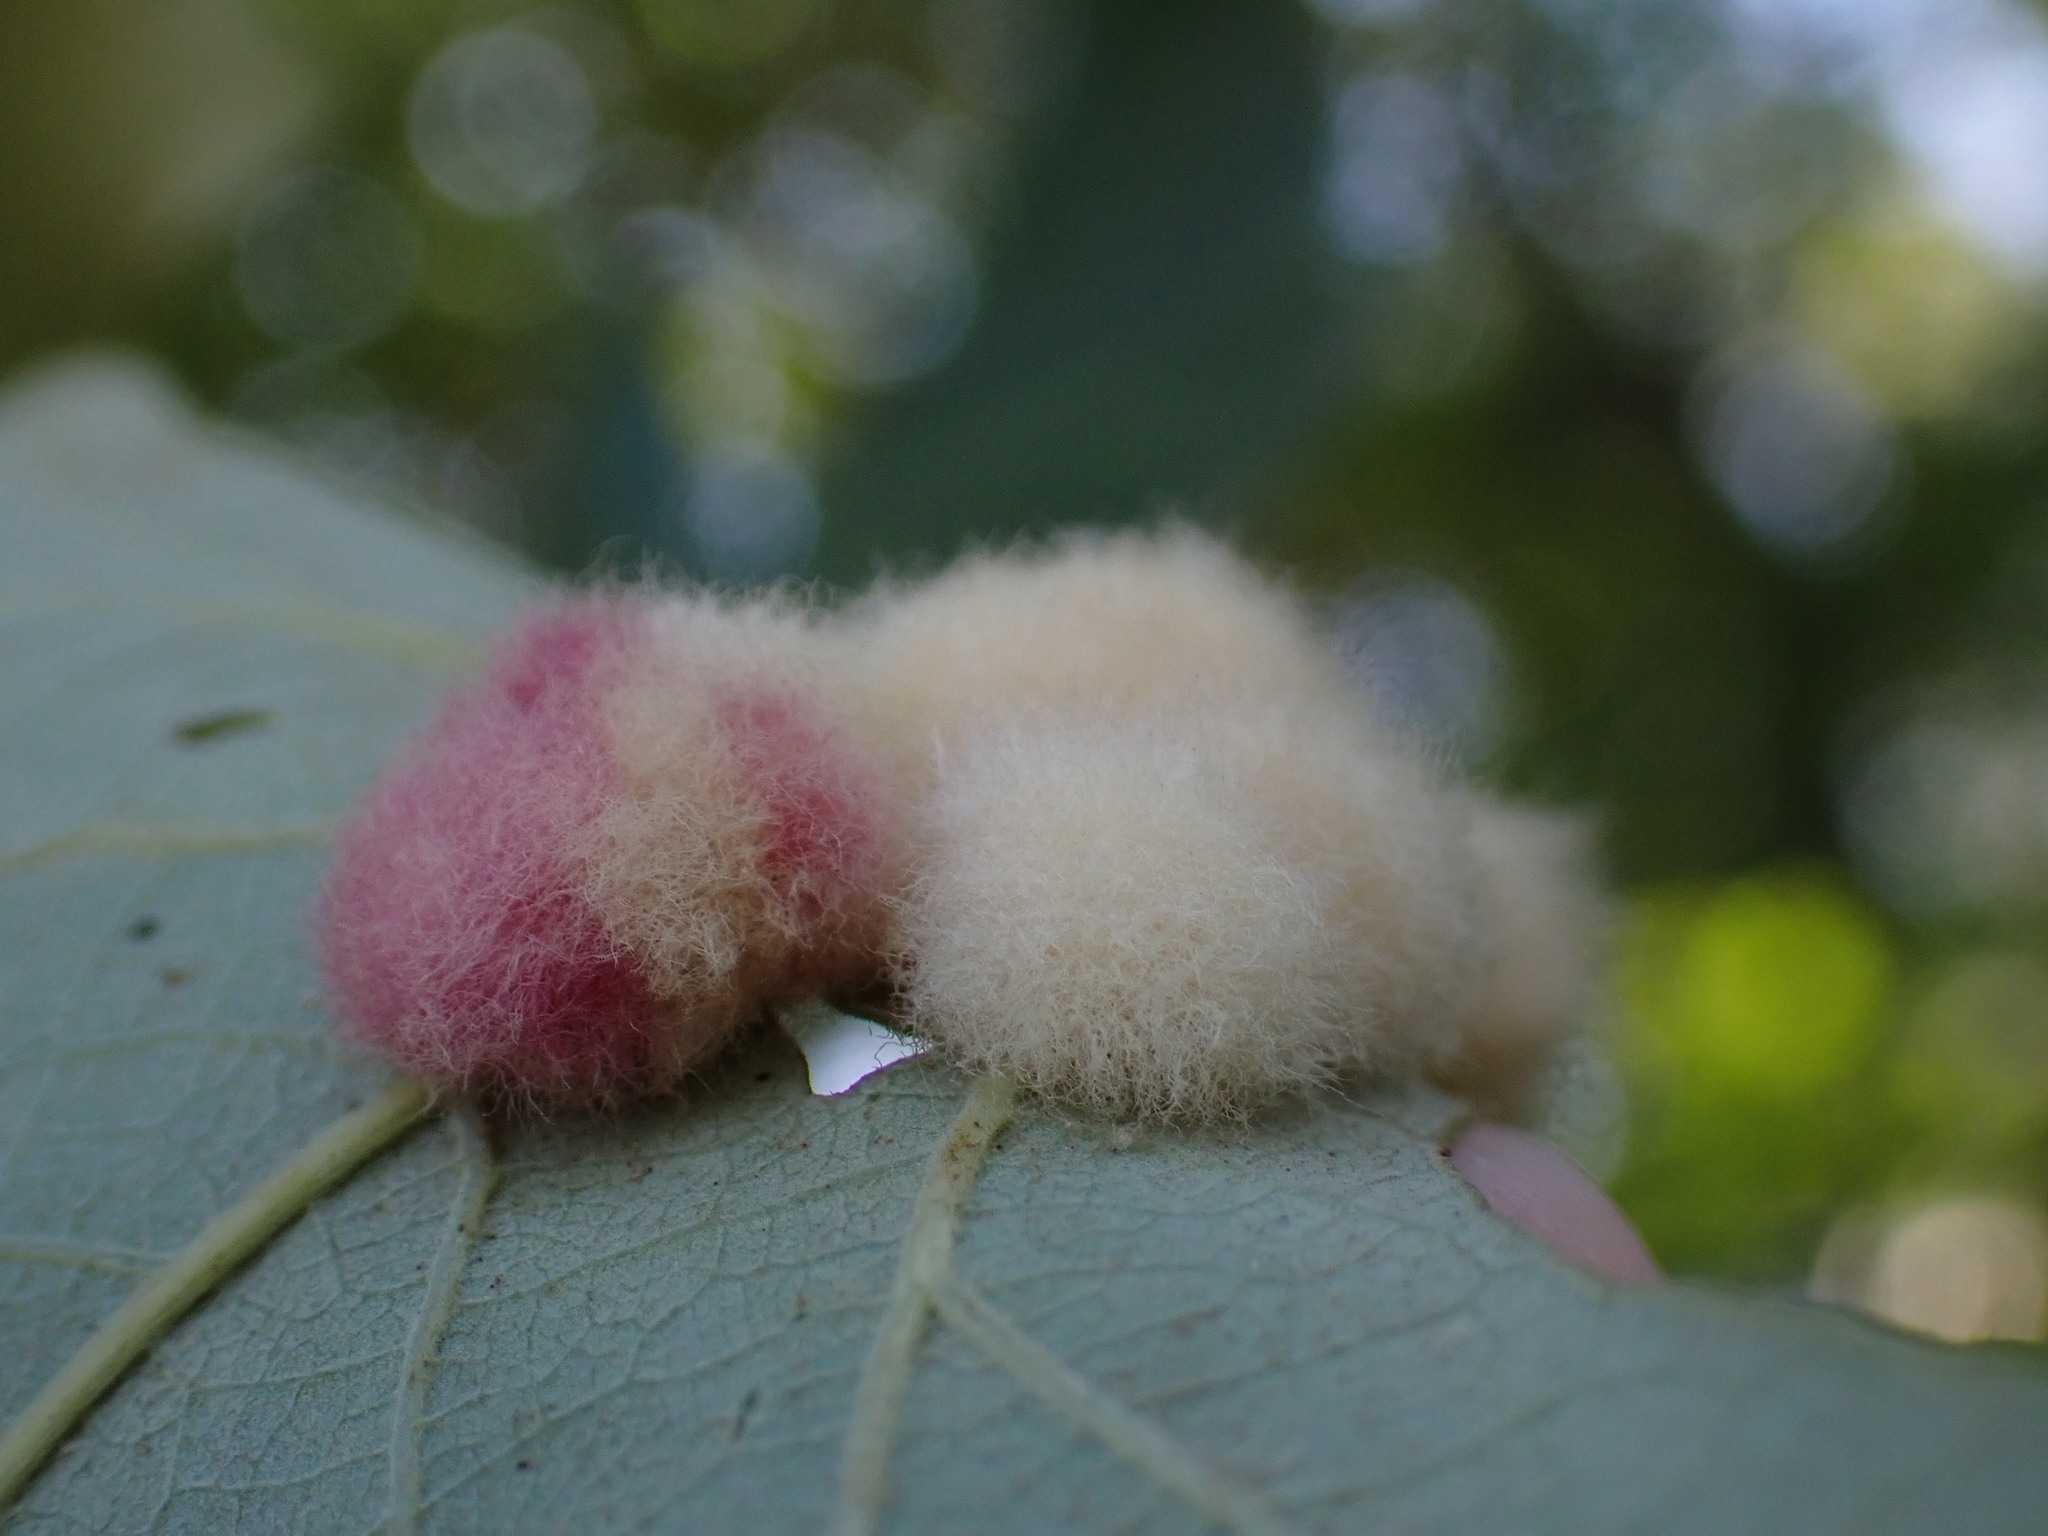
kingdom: Animalia
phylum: Arthropoda
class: Insecta
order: Hymenoptera
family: Cynipidae
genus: Andricus
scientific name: Andricus Druon ignotum
